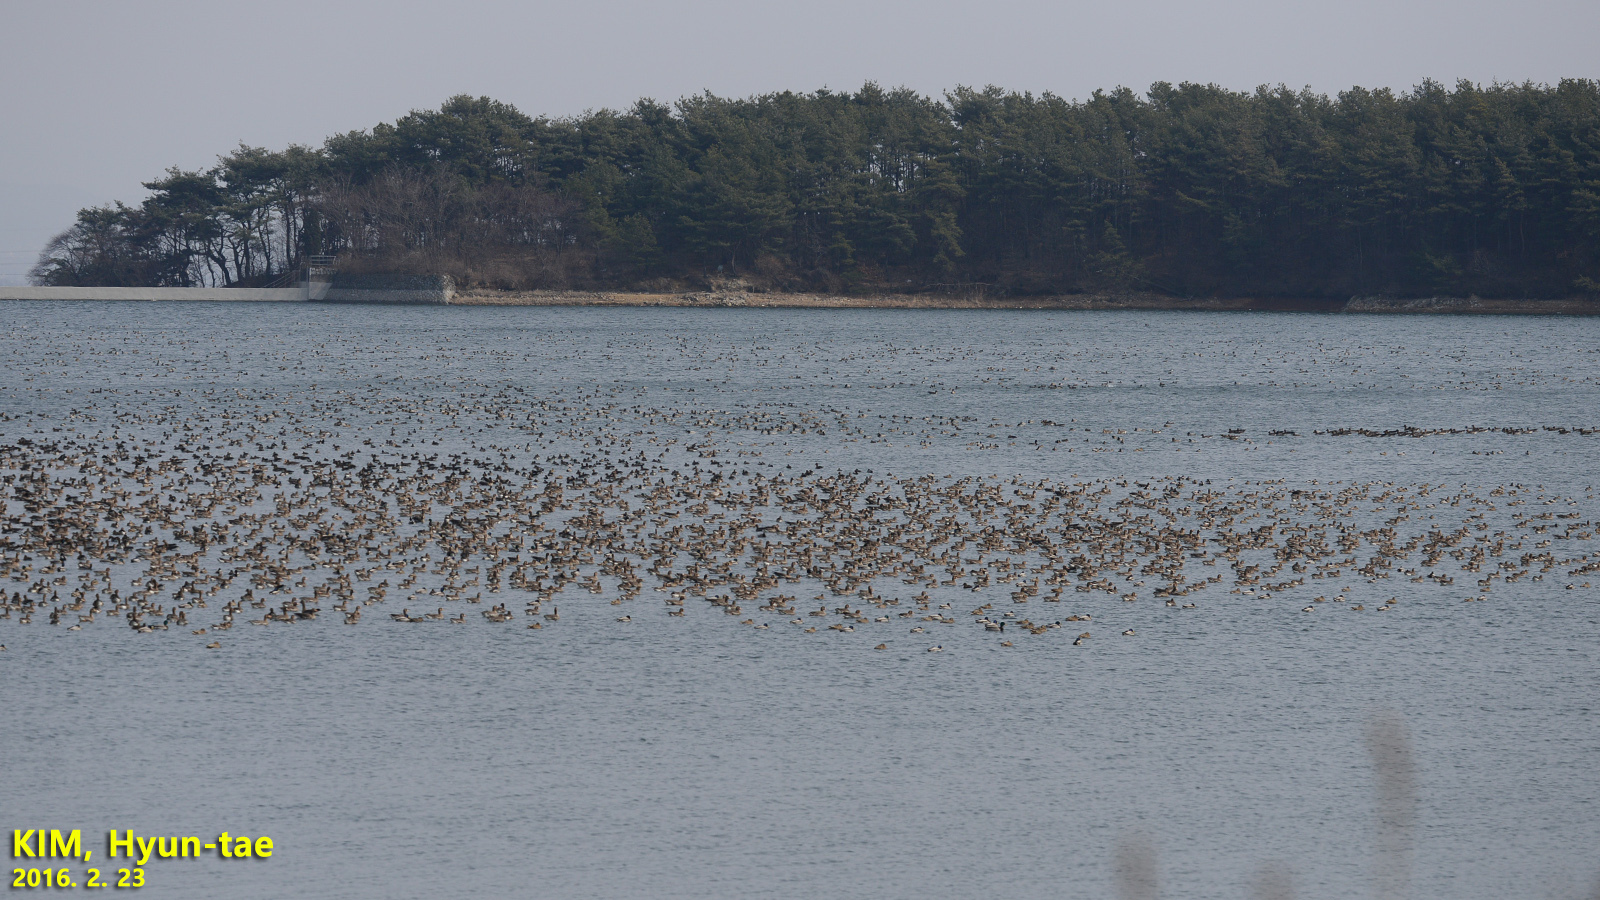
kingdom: Animalia
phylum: Chordata
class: Aves
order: Anseriformes
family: Anatidae
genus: Anser
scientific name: Anser albifrons
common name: Greater white-fronted goose
